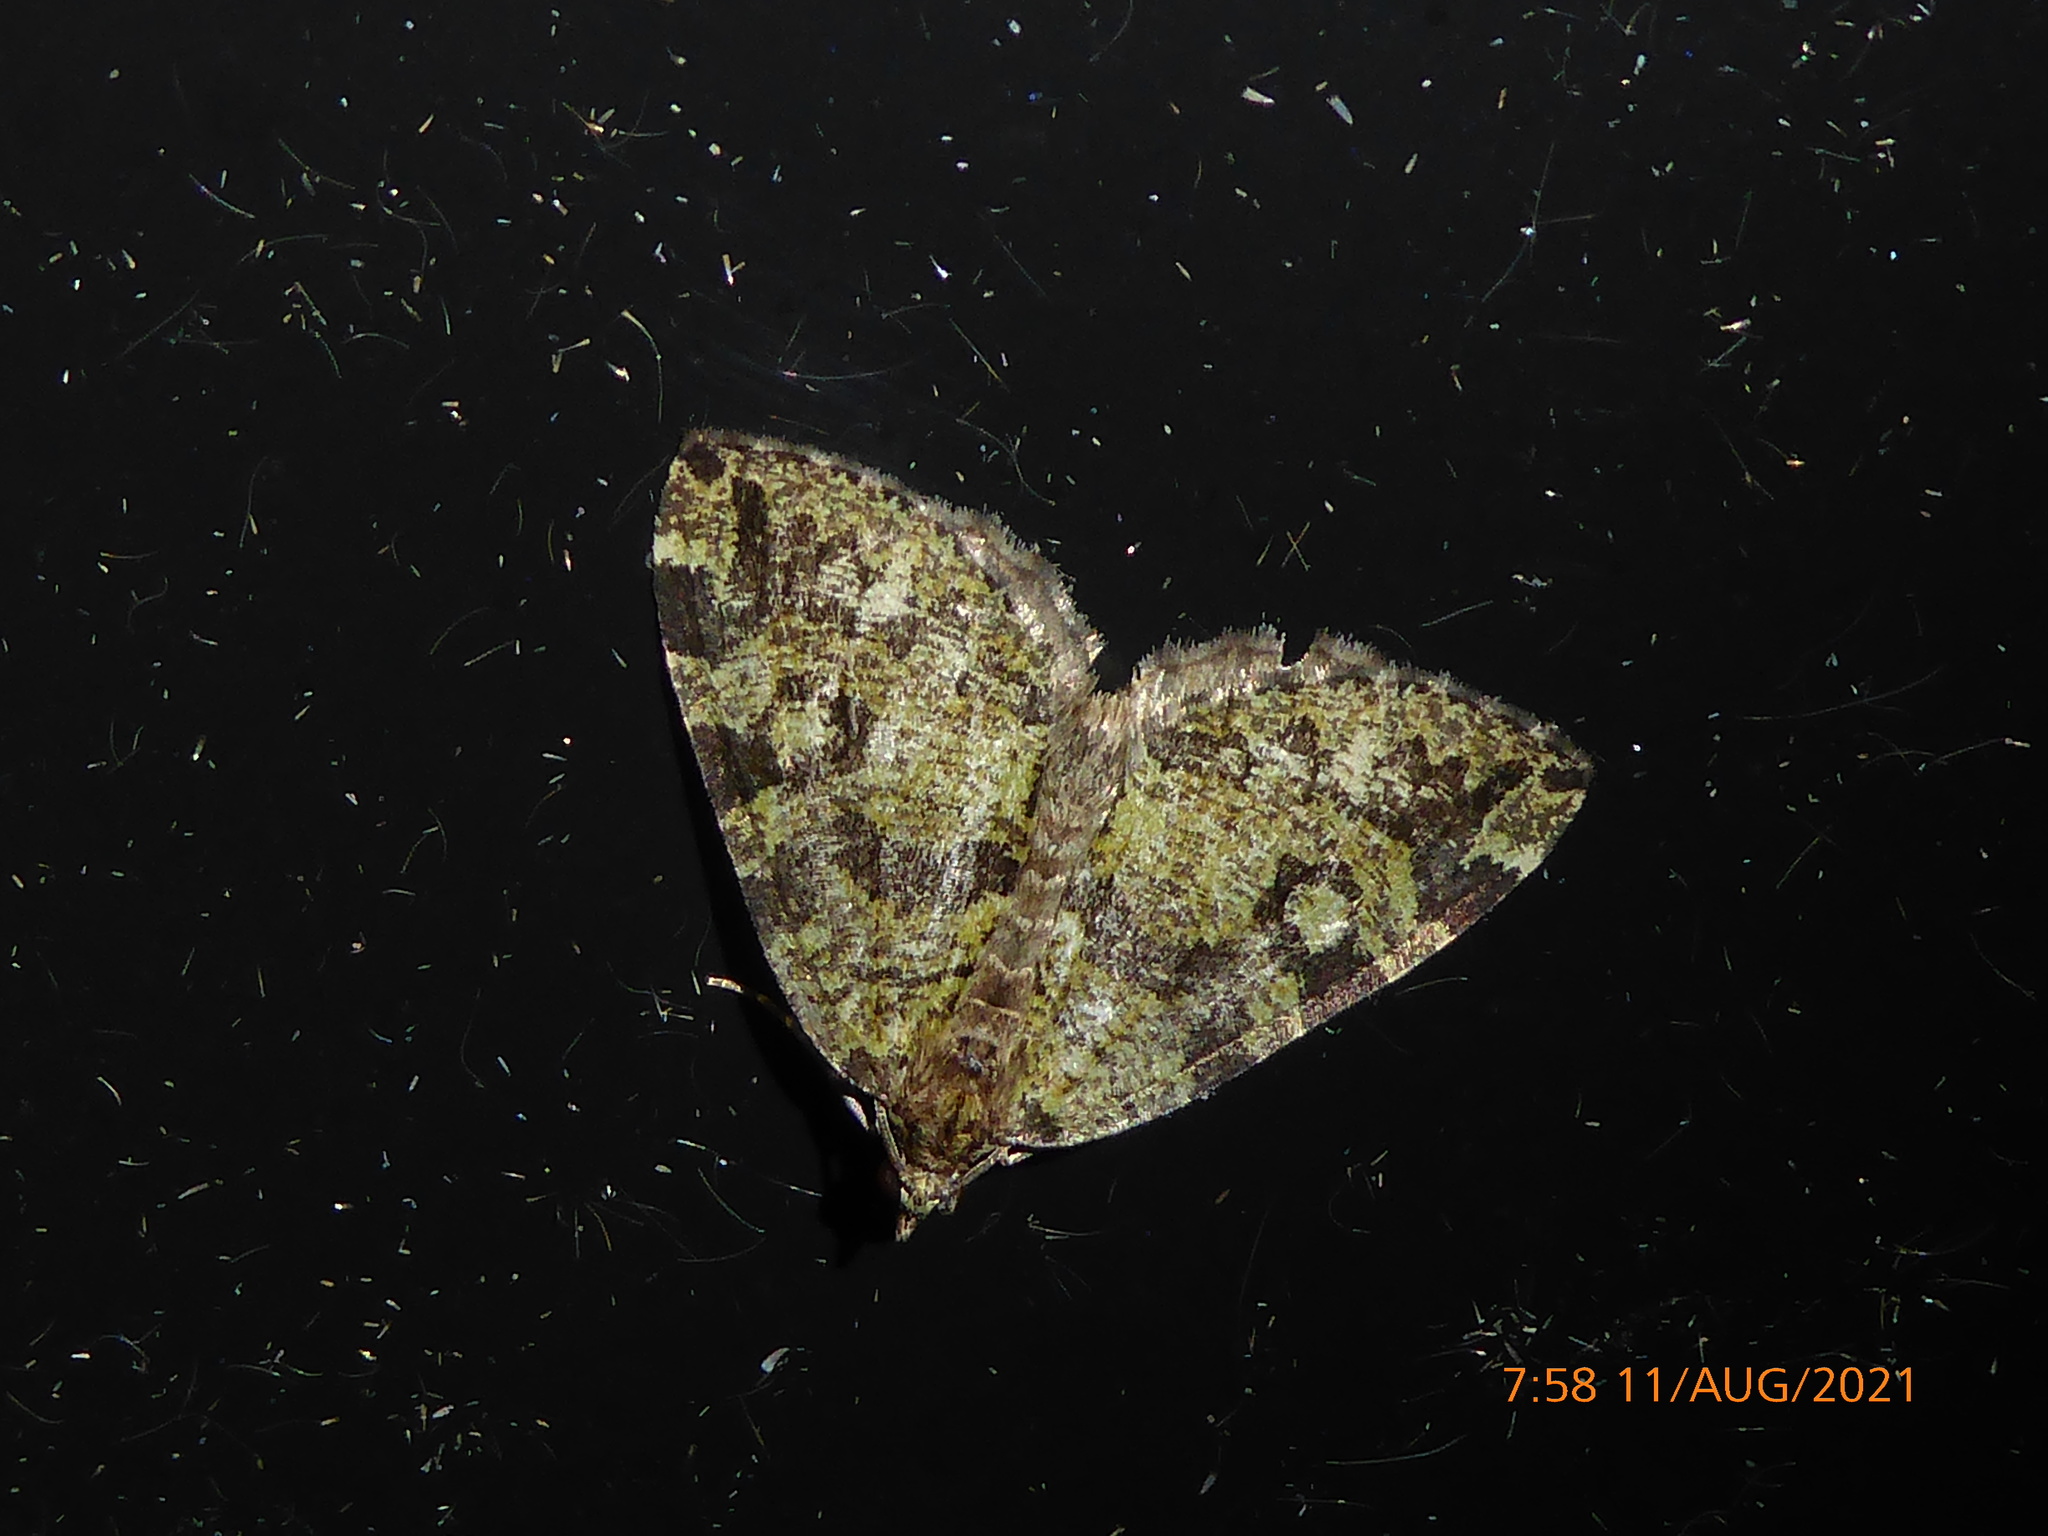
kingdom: Animalia
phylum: Arthropoda
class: Insecta
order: Lepidoptera
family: Geometridae
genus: Hydriomena
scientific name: Hydriomena furcata
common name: July highflyer
